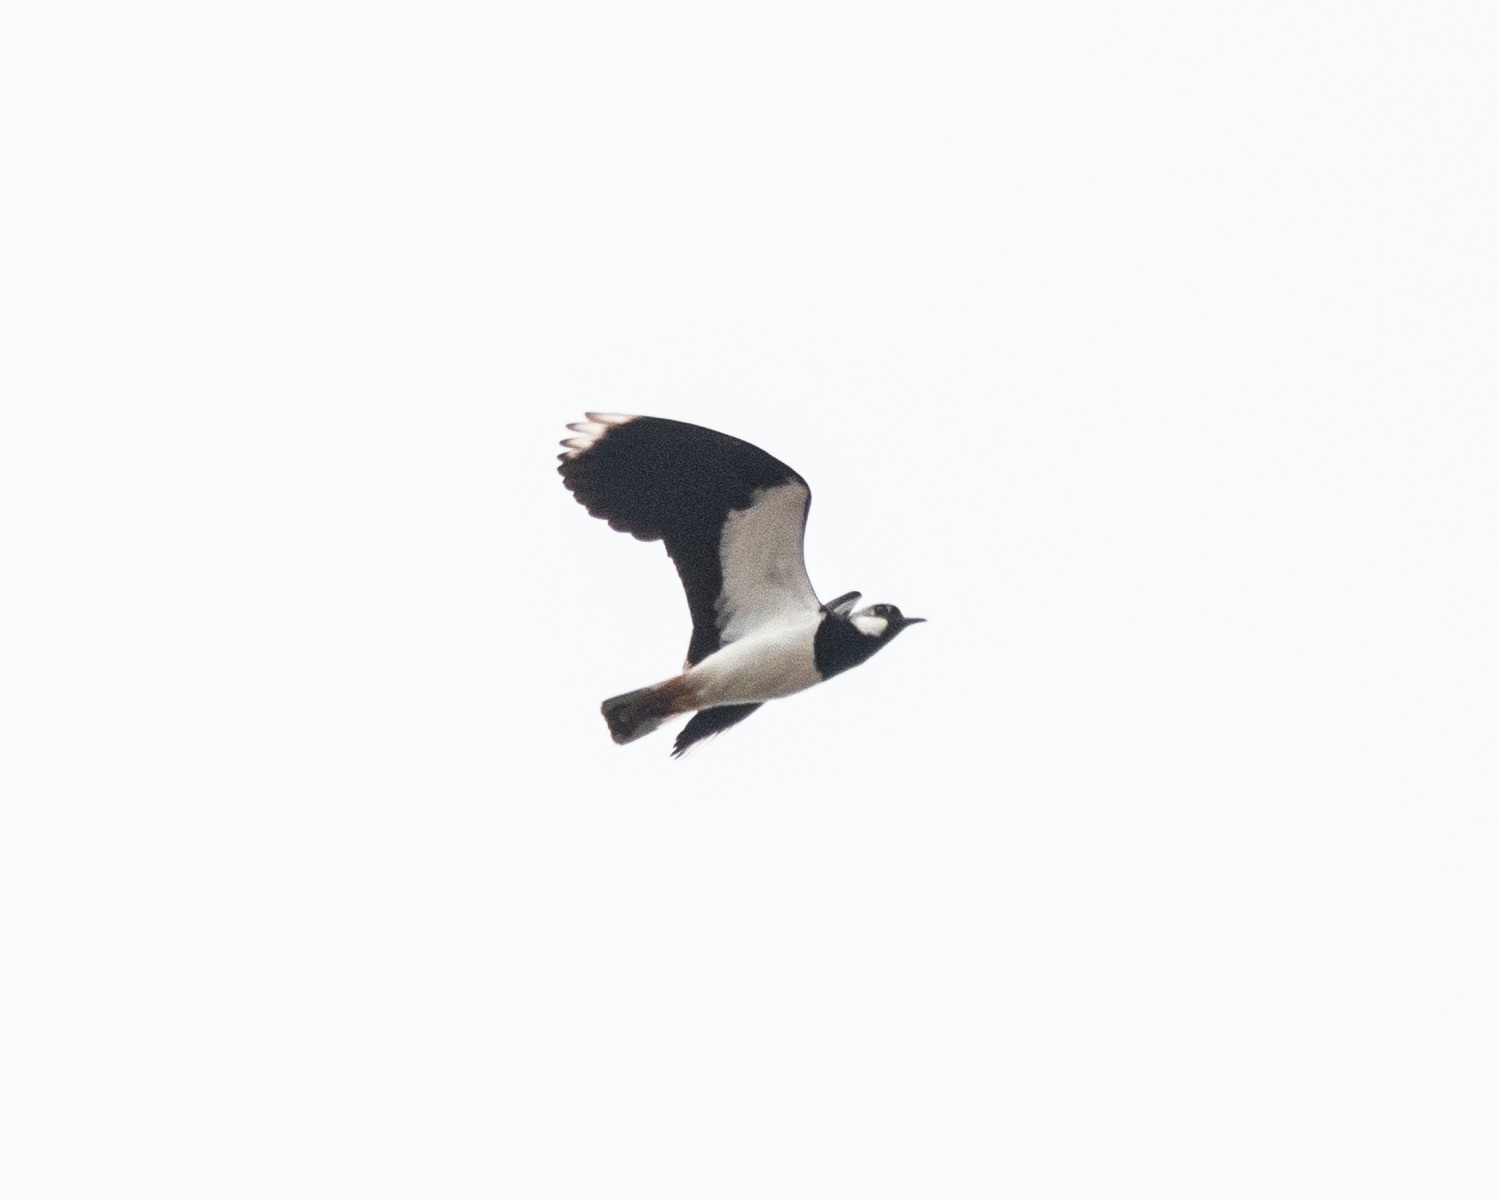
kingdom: Animalia
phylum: Chordata
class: Aves
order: Charadriiformes
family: Charadriidae
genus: Vanellus
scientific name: Vanellus vanellus
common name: Northern lapwing
